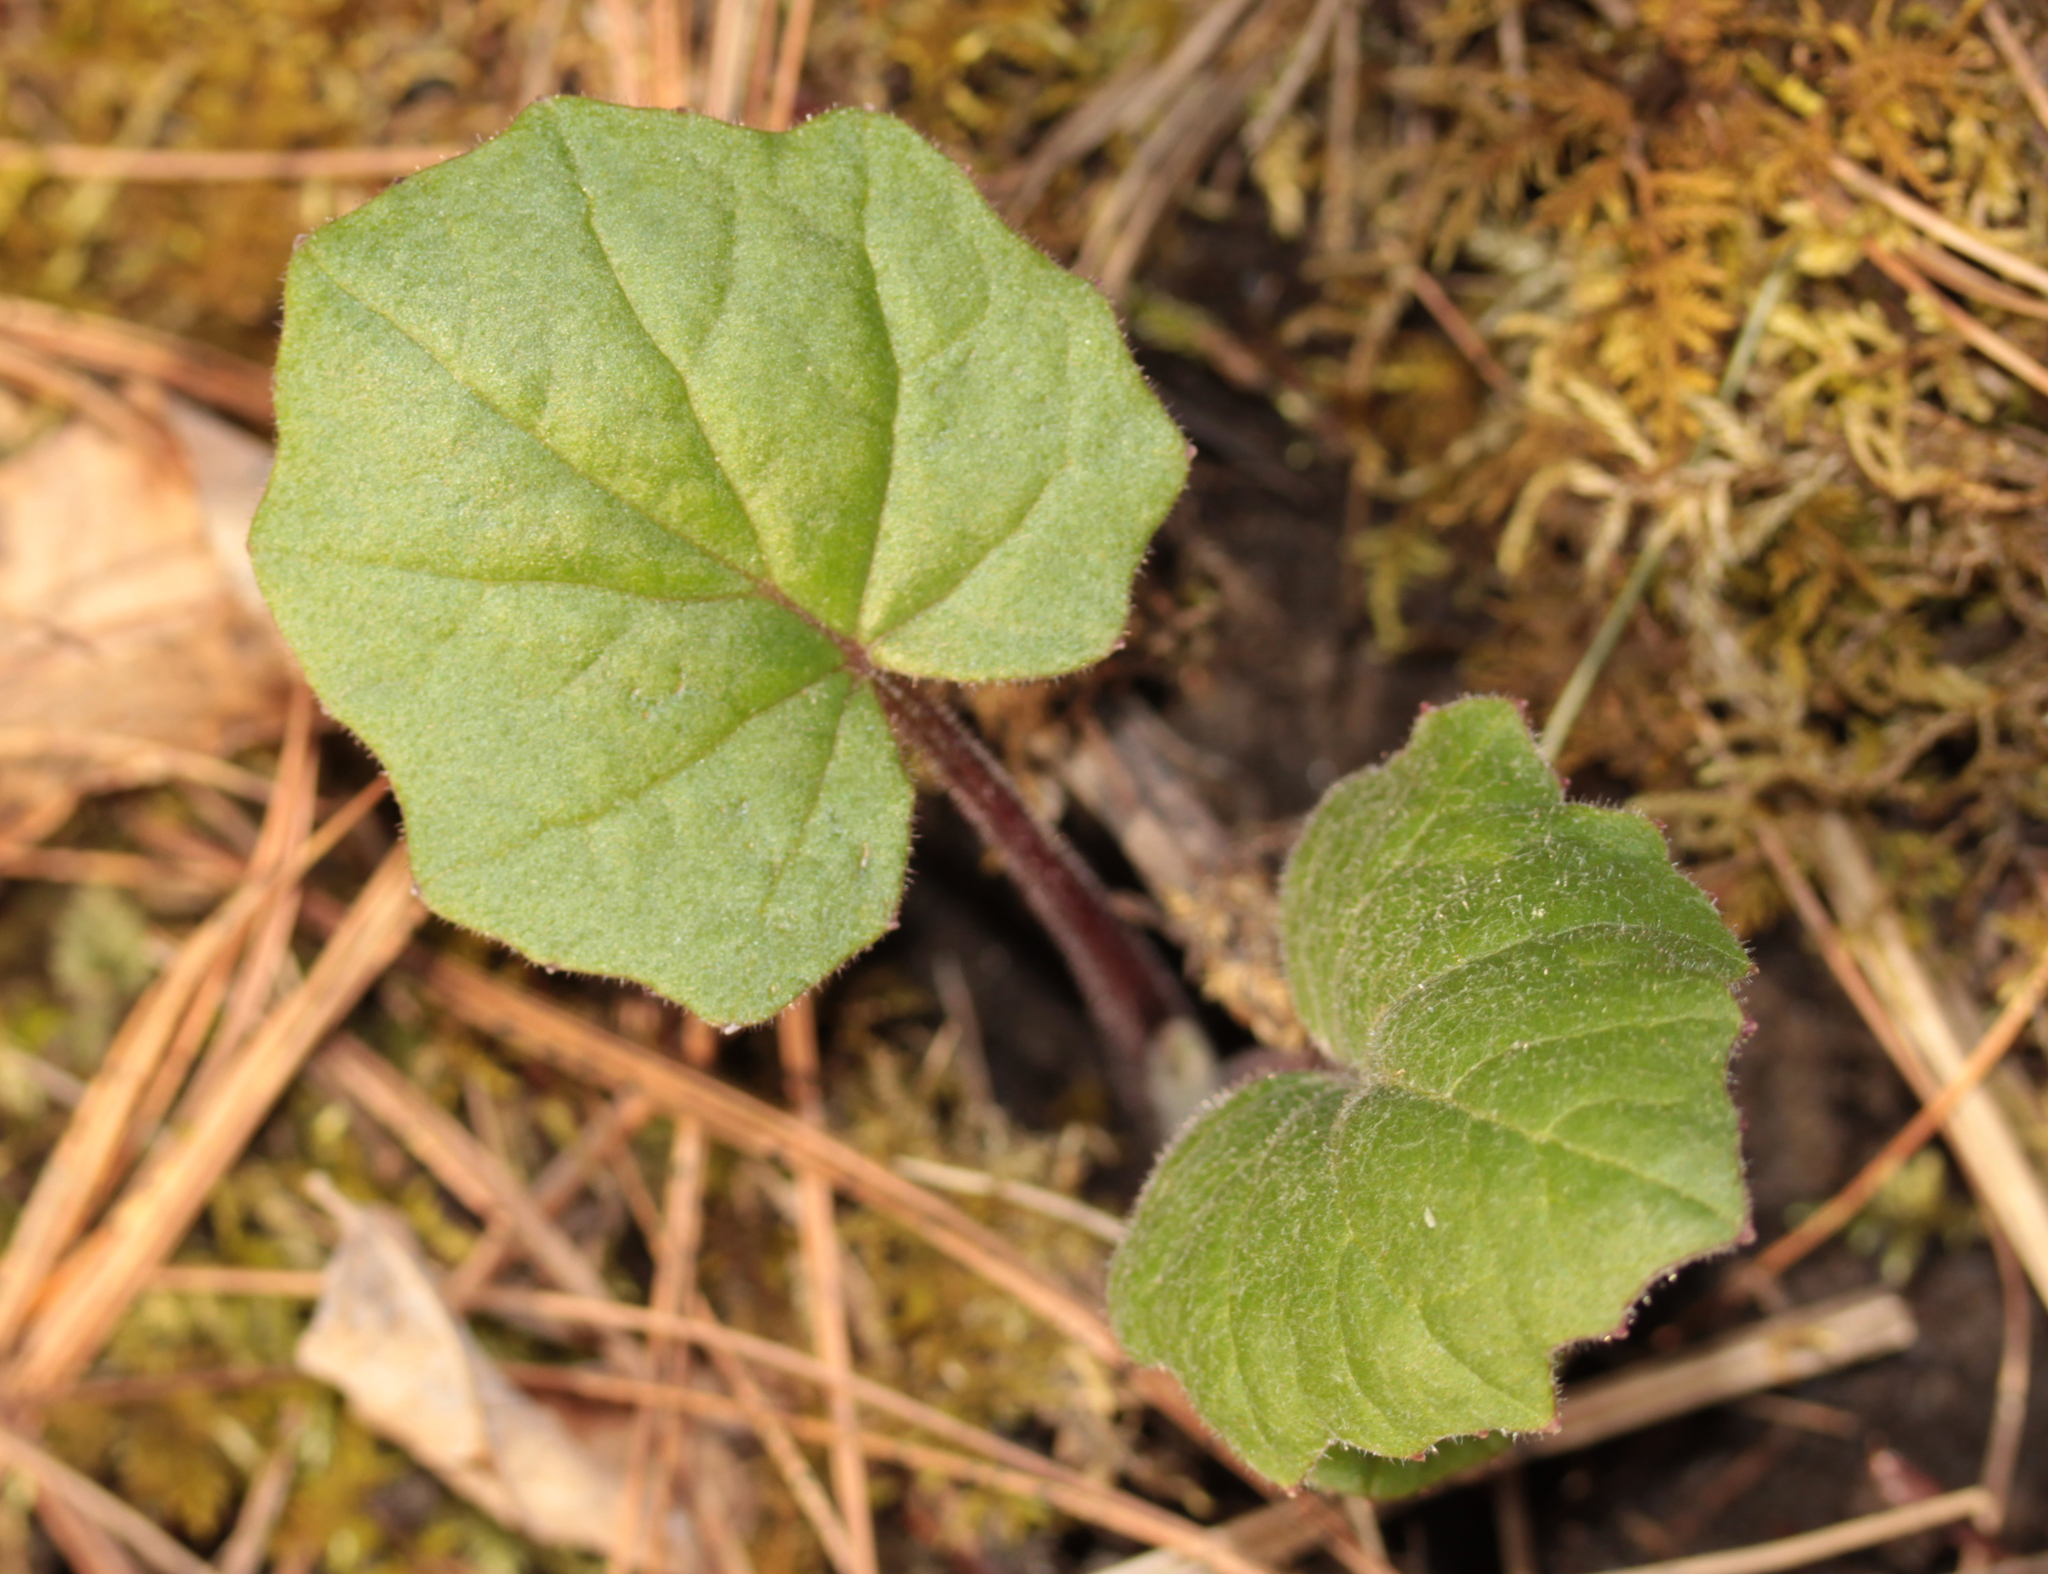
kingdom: Plantae
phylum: Tracheophyta
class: Magnoliopsida
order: Asterales
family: Asteraceae
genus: Tussilago
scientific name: Tussilago farfara
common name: Coltsfoot
